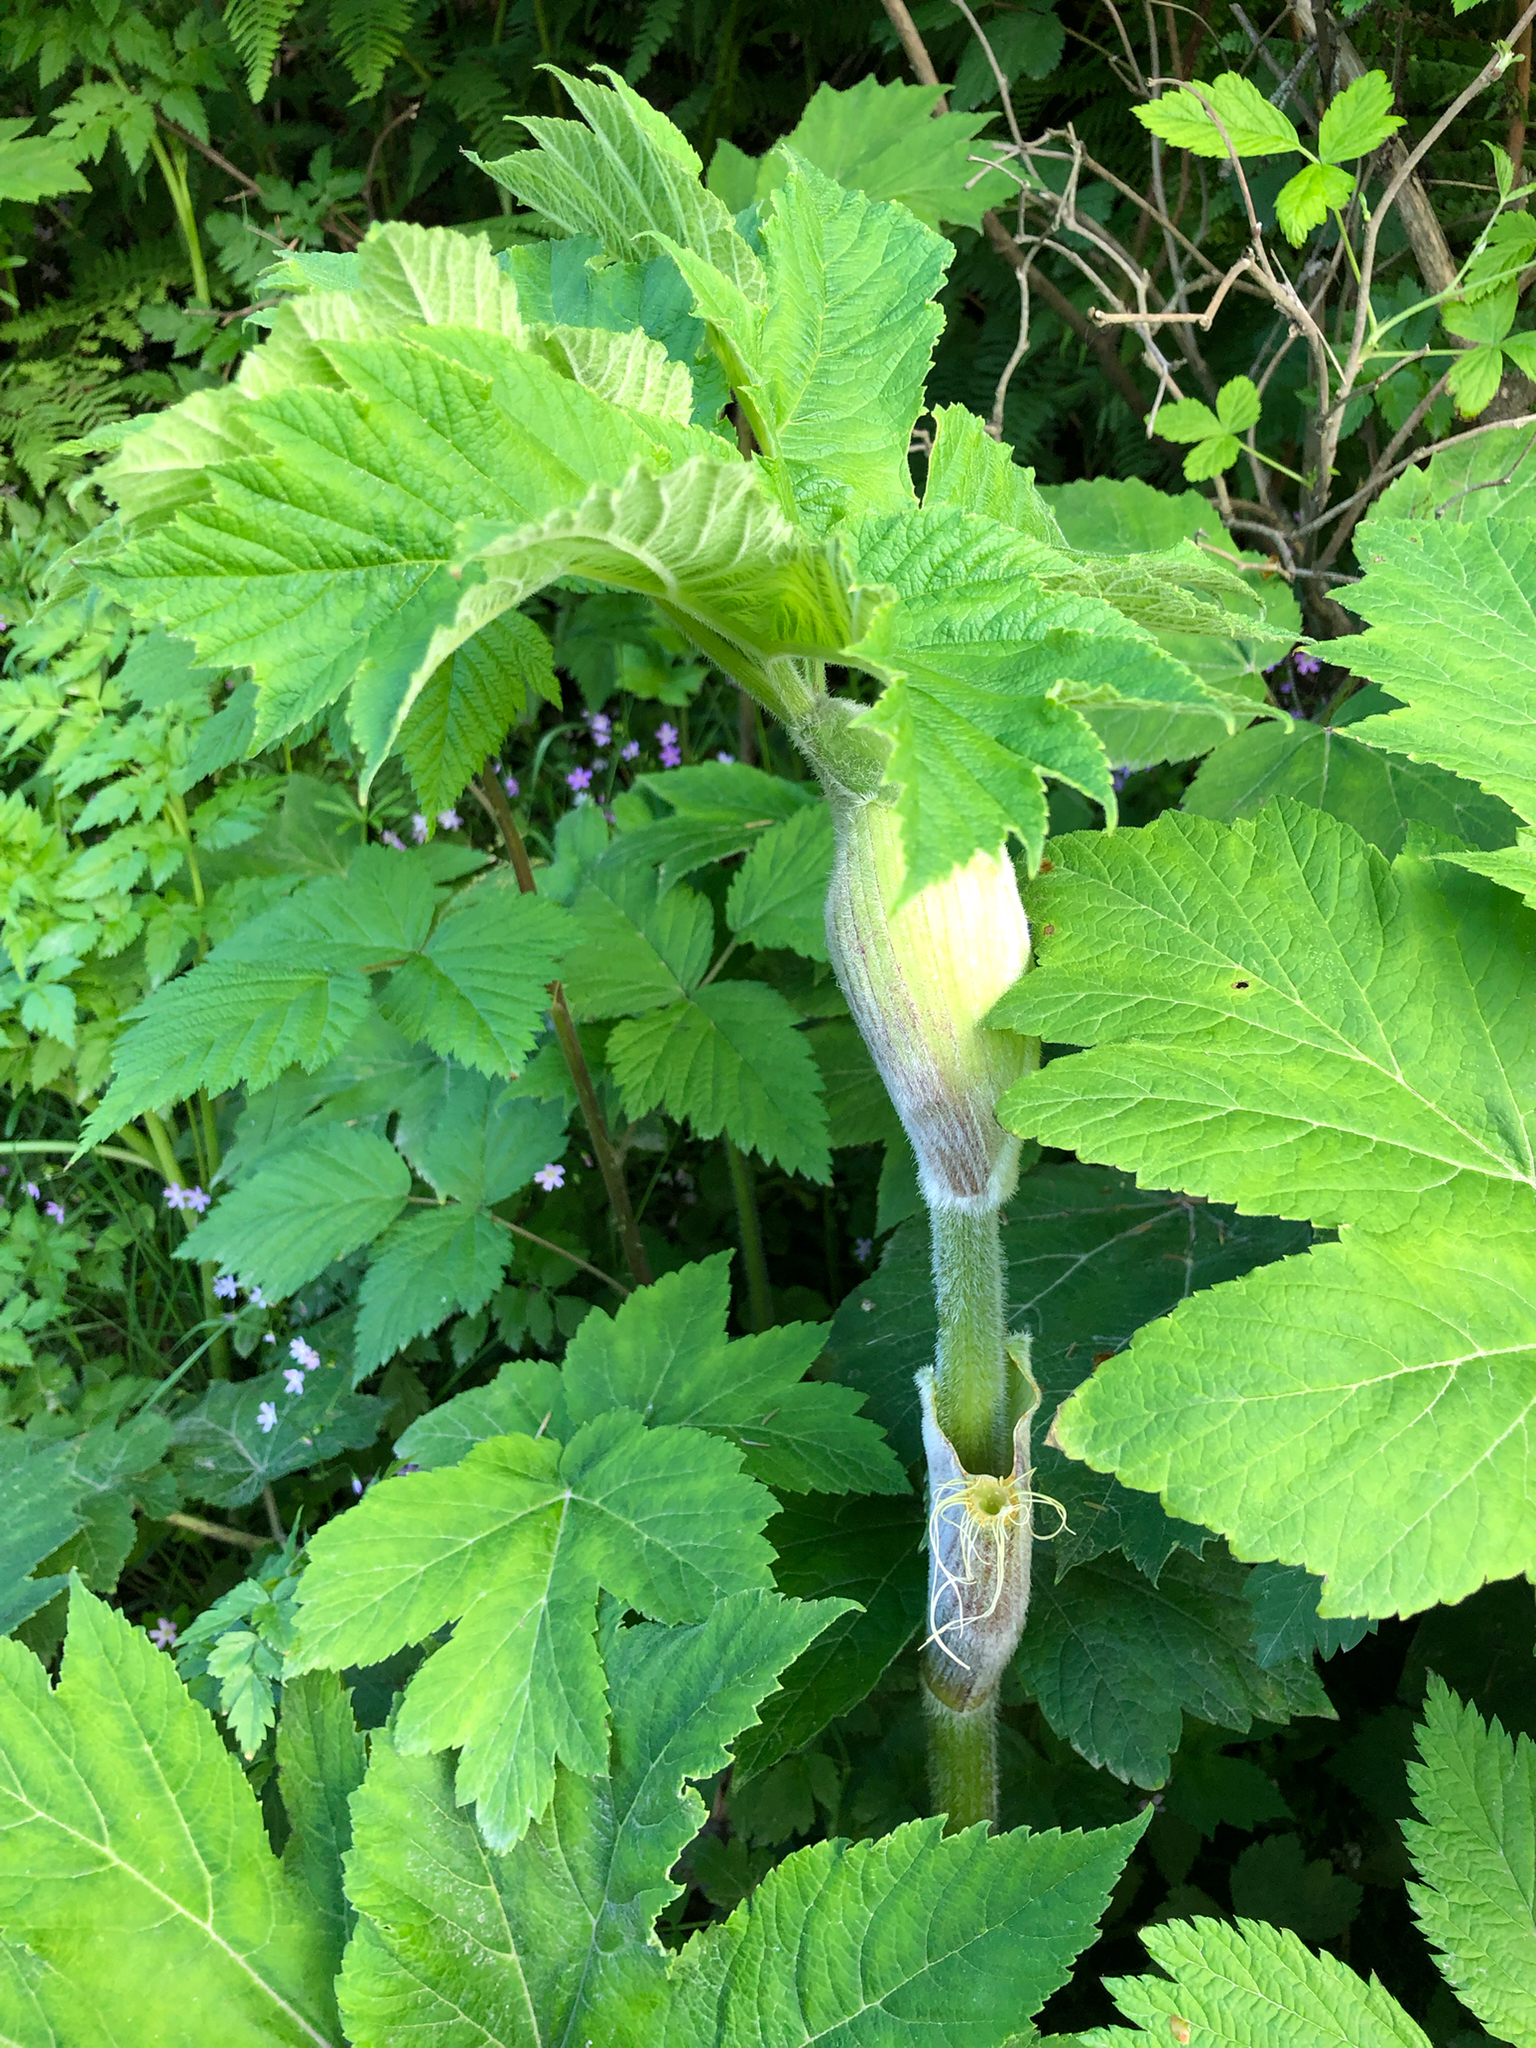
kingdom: Plantae
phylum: Tracheophyta
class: Magnoliopsida
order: Apiales
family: Apiaceae
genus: Heracleum
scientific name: Heracleum maximum
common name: American cow parsnip
